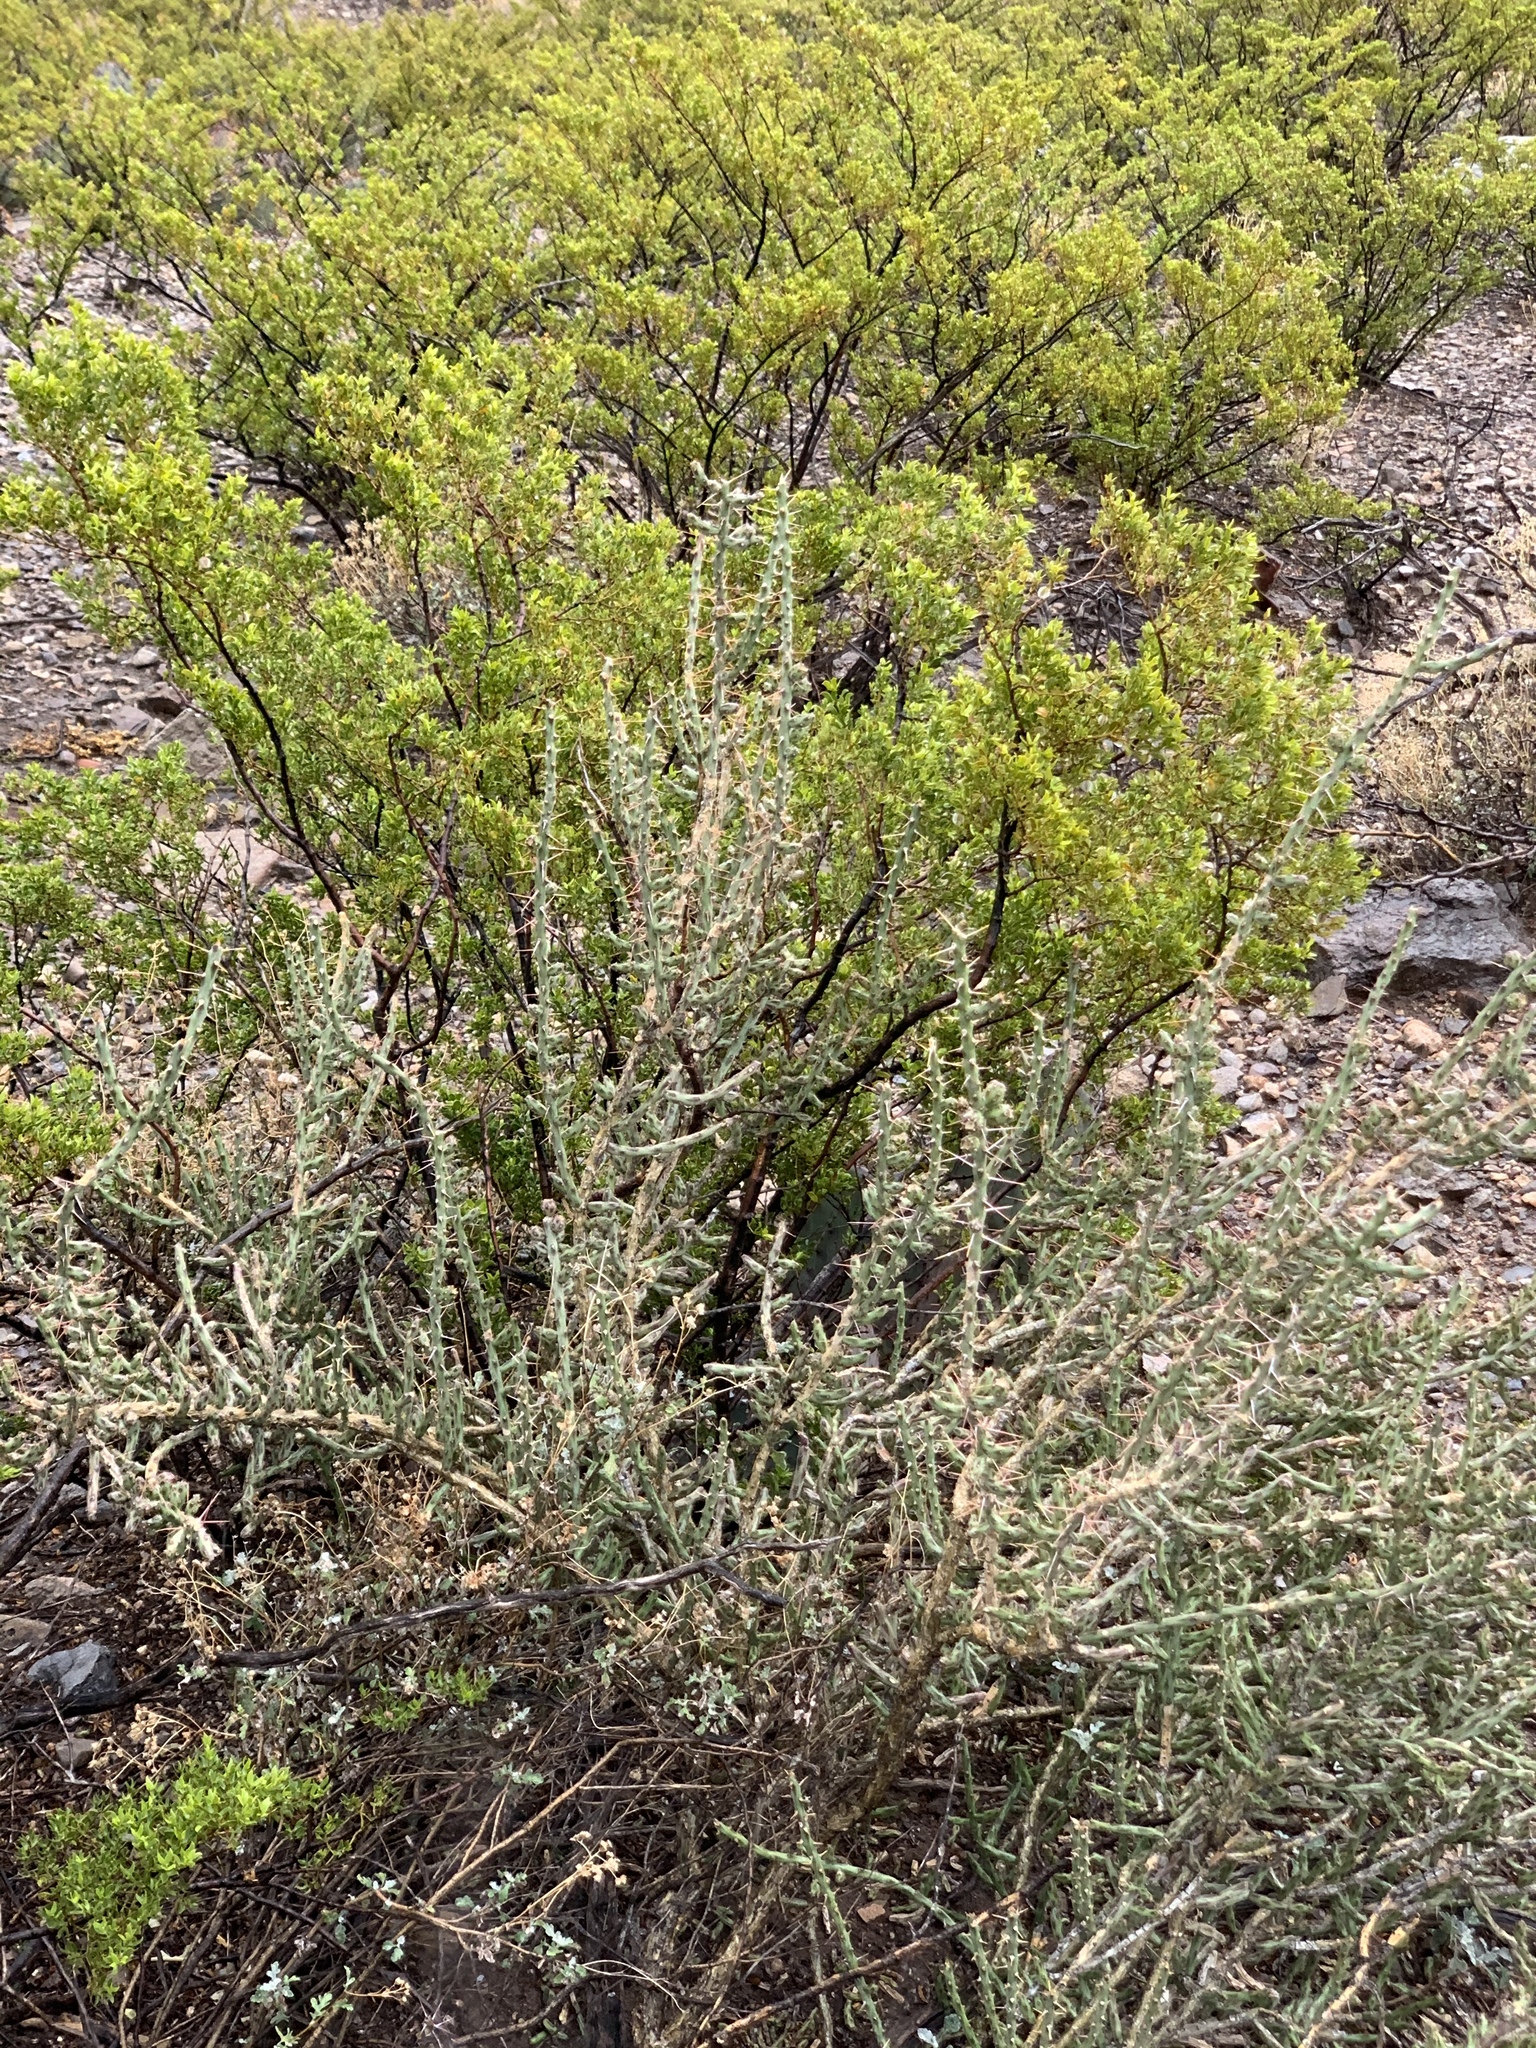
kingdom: Plantae
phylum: Tracheophyta
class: Magnoliopsida
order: Caryophyllales
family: Cactaceae
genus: Cylindropuntia
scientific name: Cylindropuntia leptocaulis
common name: Christmas cactus
